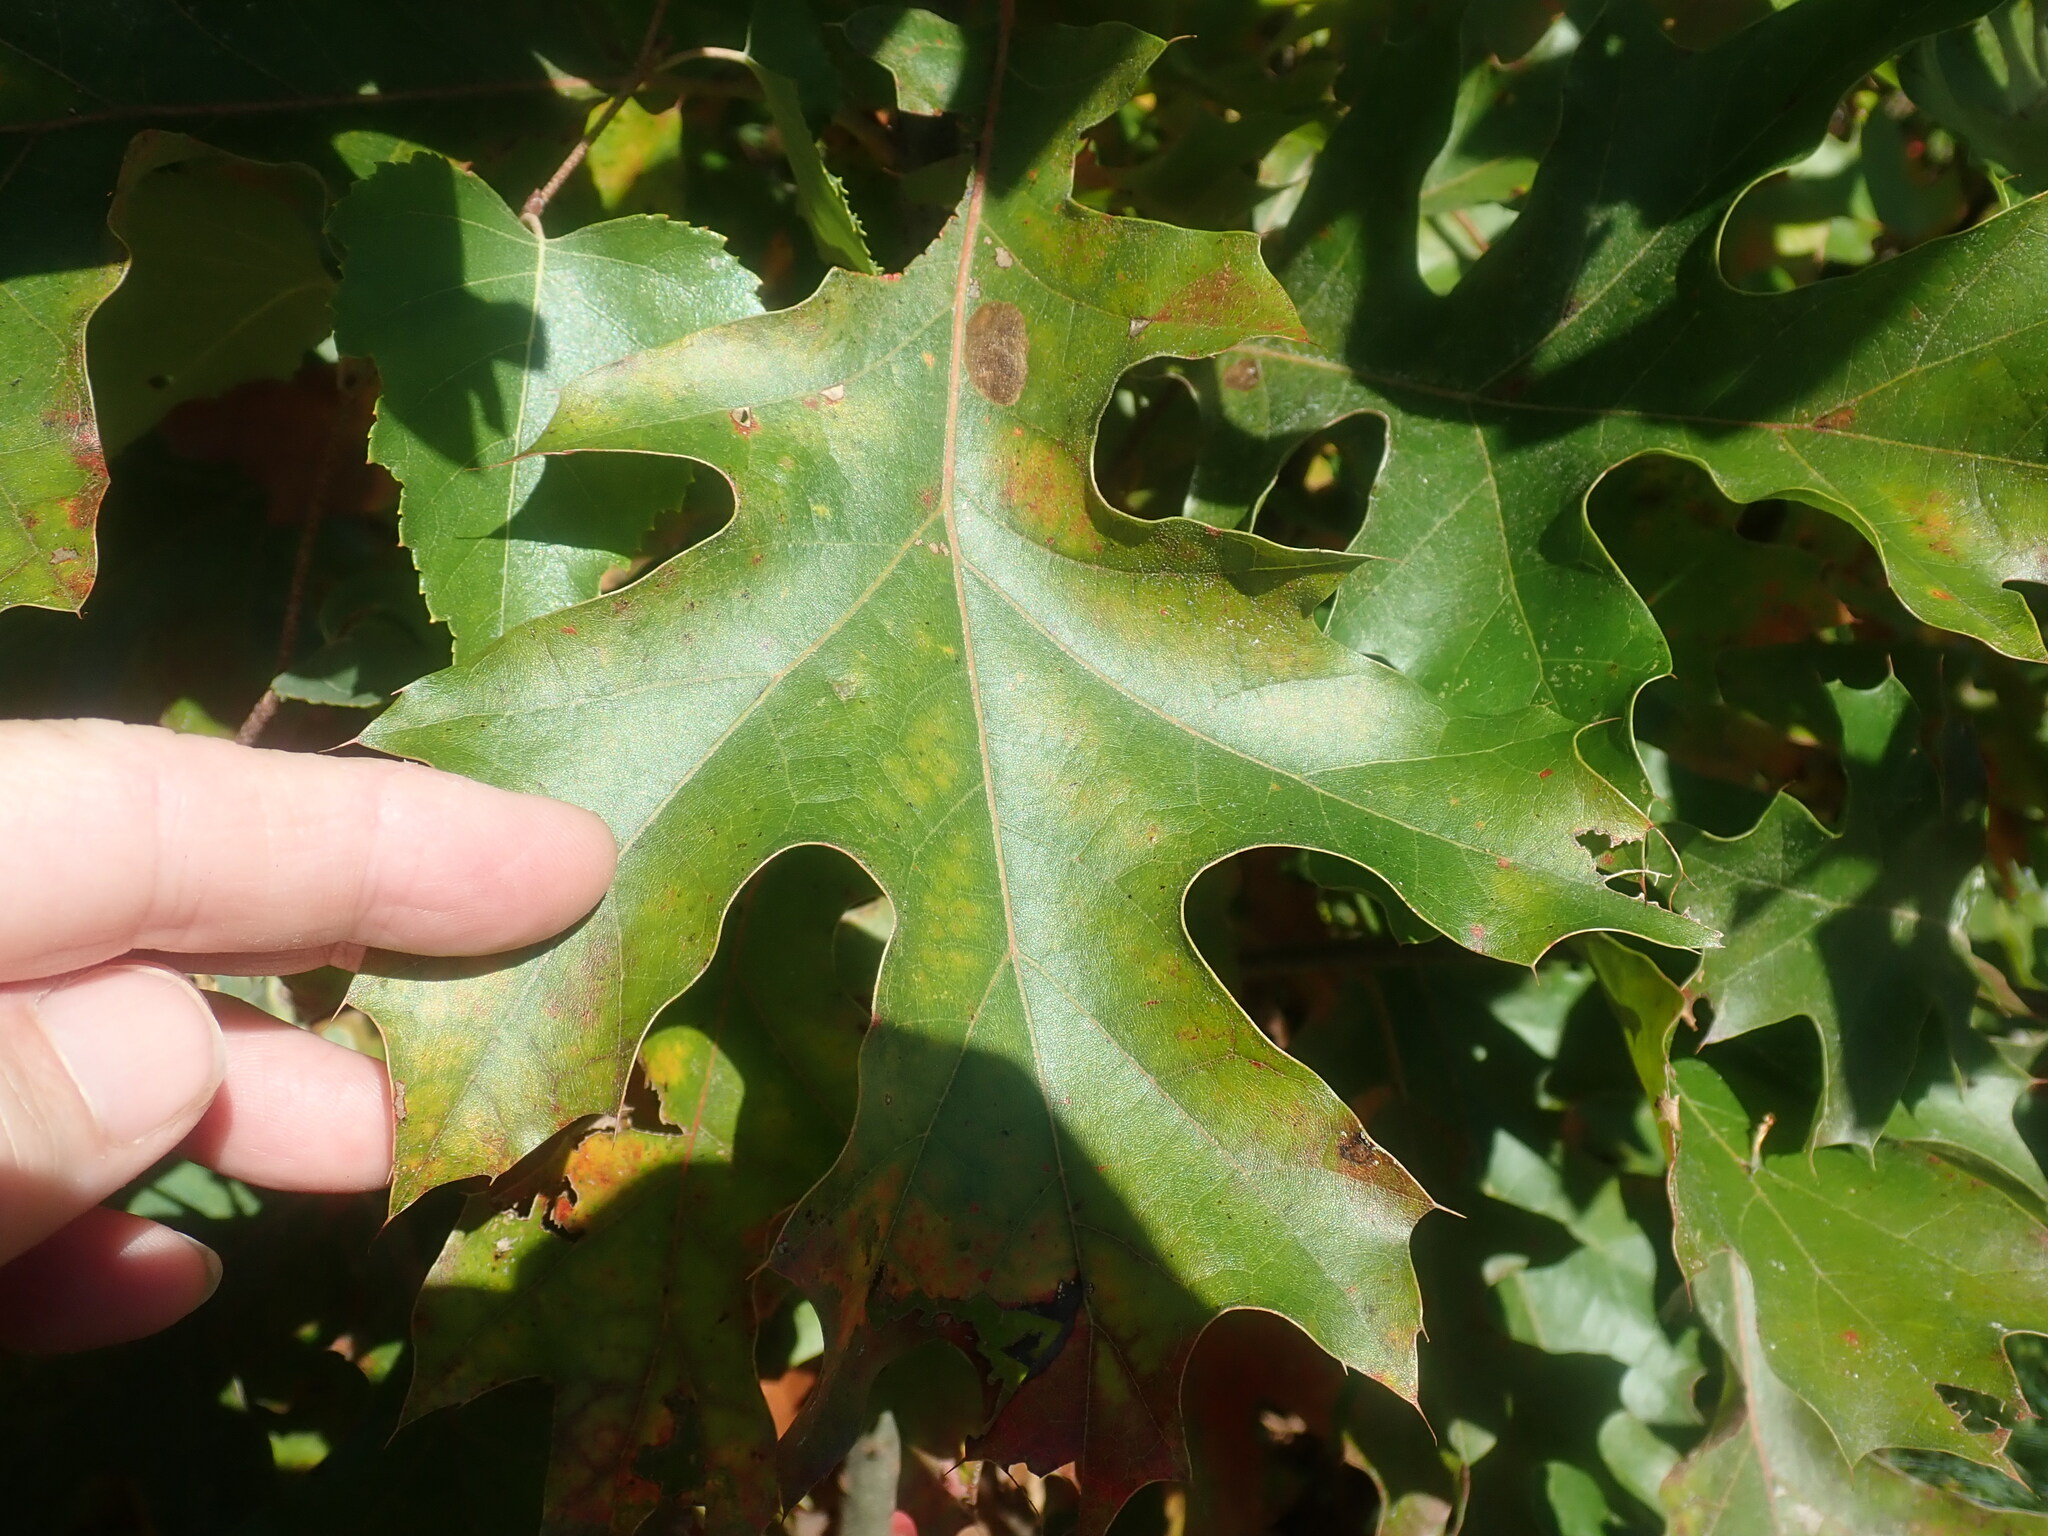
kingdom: Plantae
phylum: Tracheophyta
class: Magnoliopsida
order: Fagales
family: Fagaceae
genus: Quercus
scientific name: Quercus velutina
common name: Black oak
